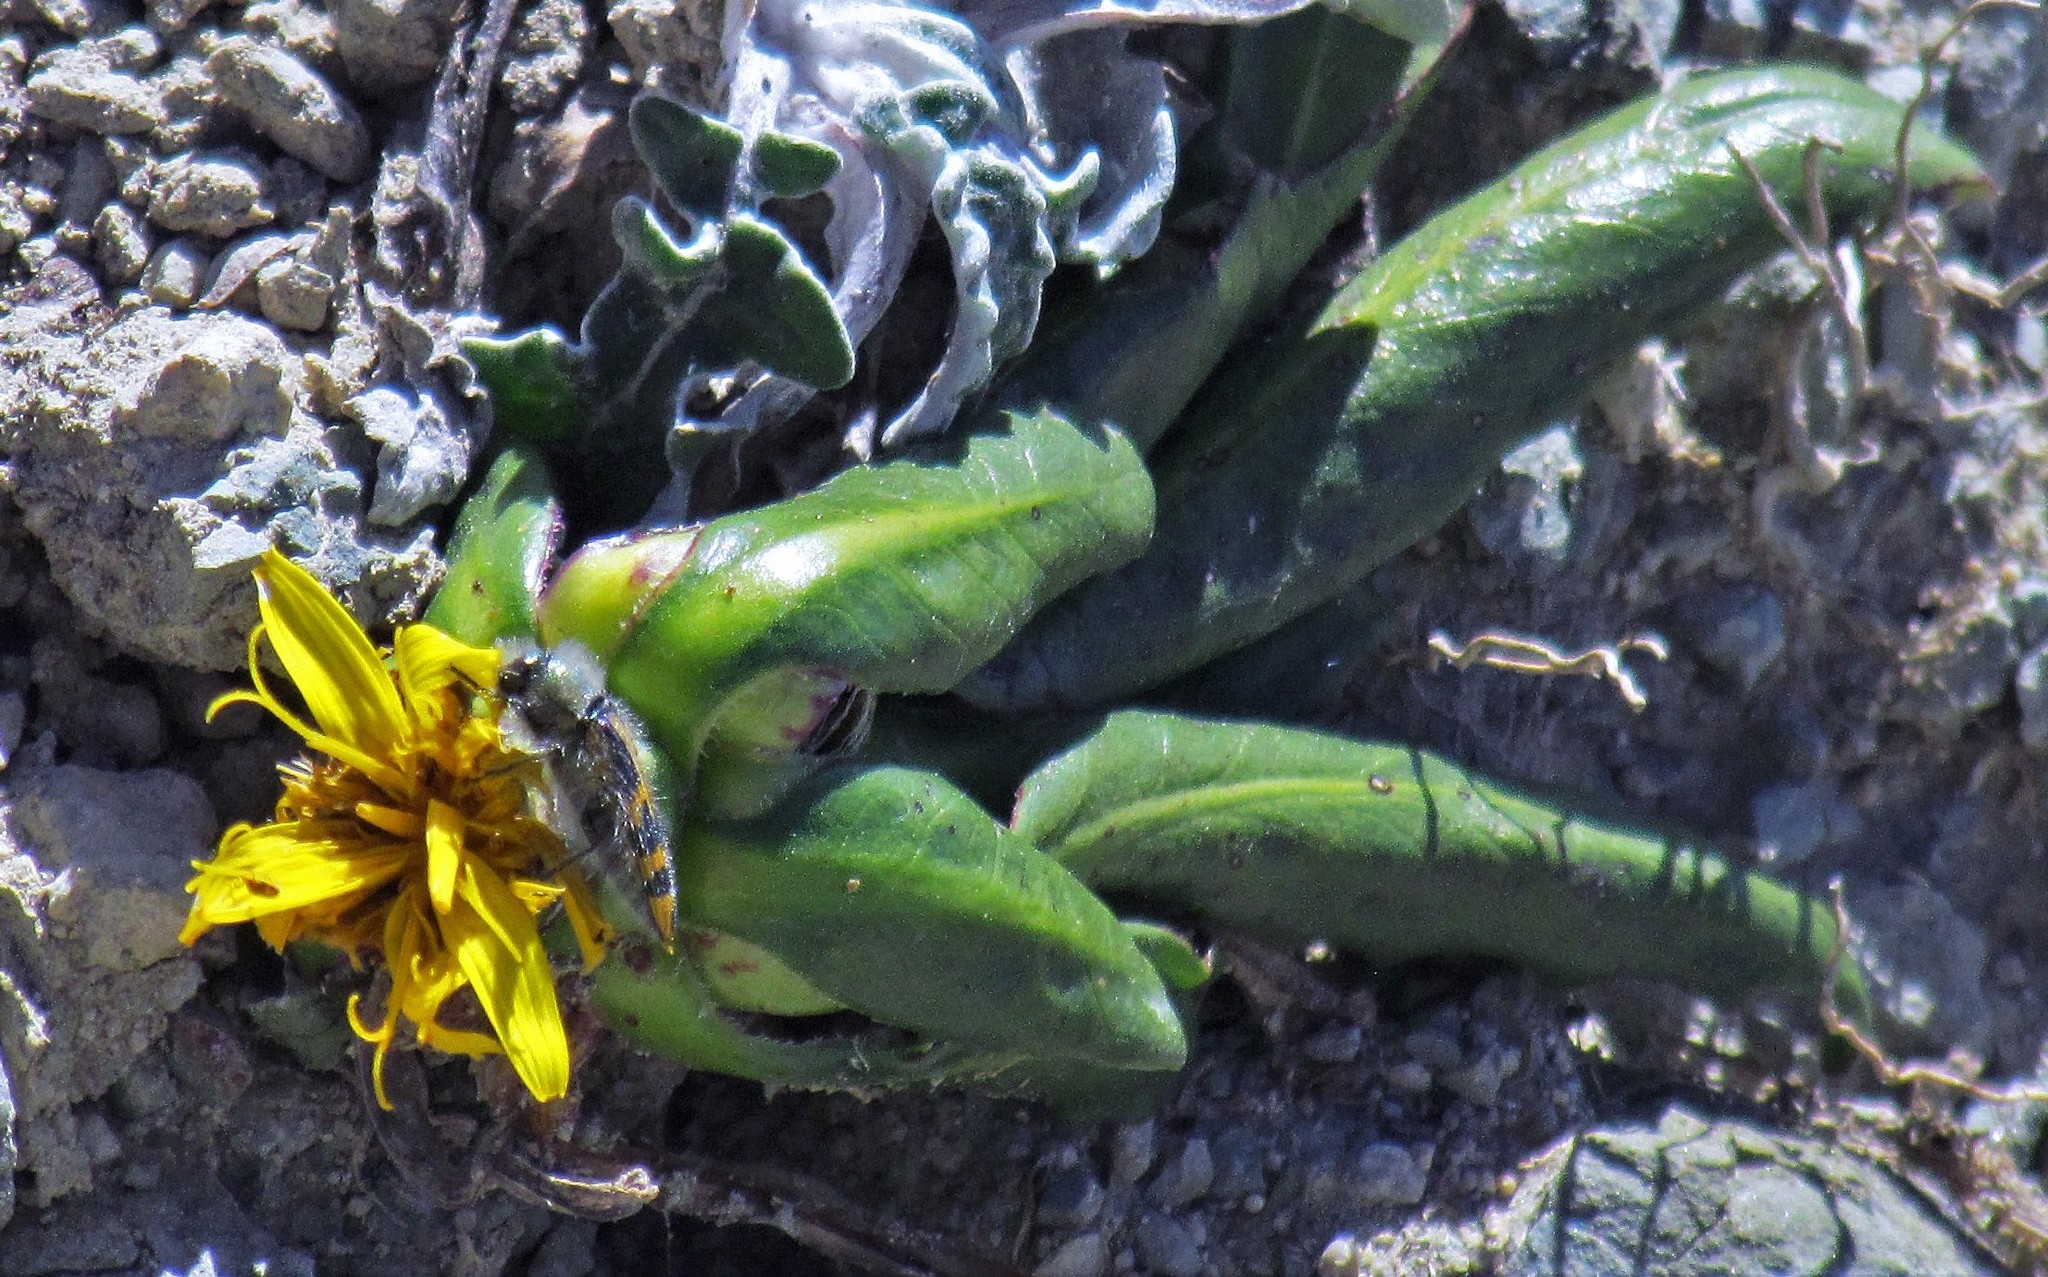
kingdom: Plantae
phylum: Tracheophyta
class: Magnoliopsida
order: Asterales
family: Asteraceae
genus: Hypochaeris
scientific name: Hypochaeris meyeniana
